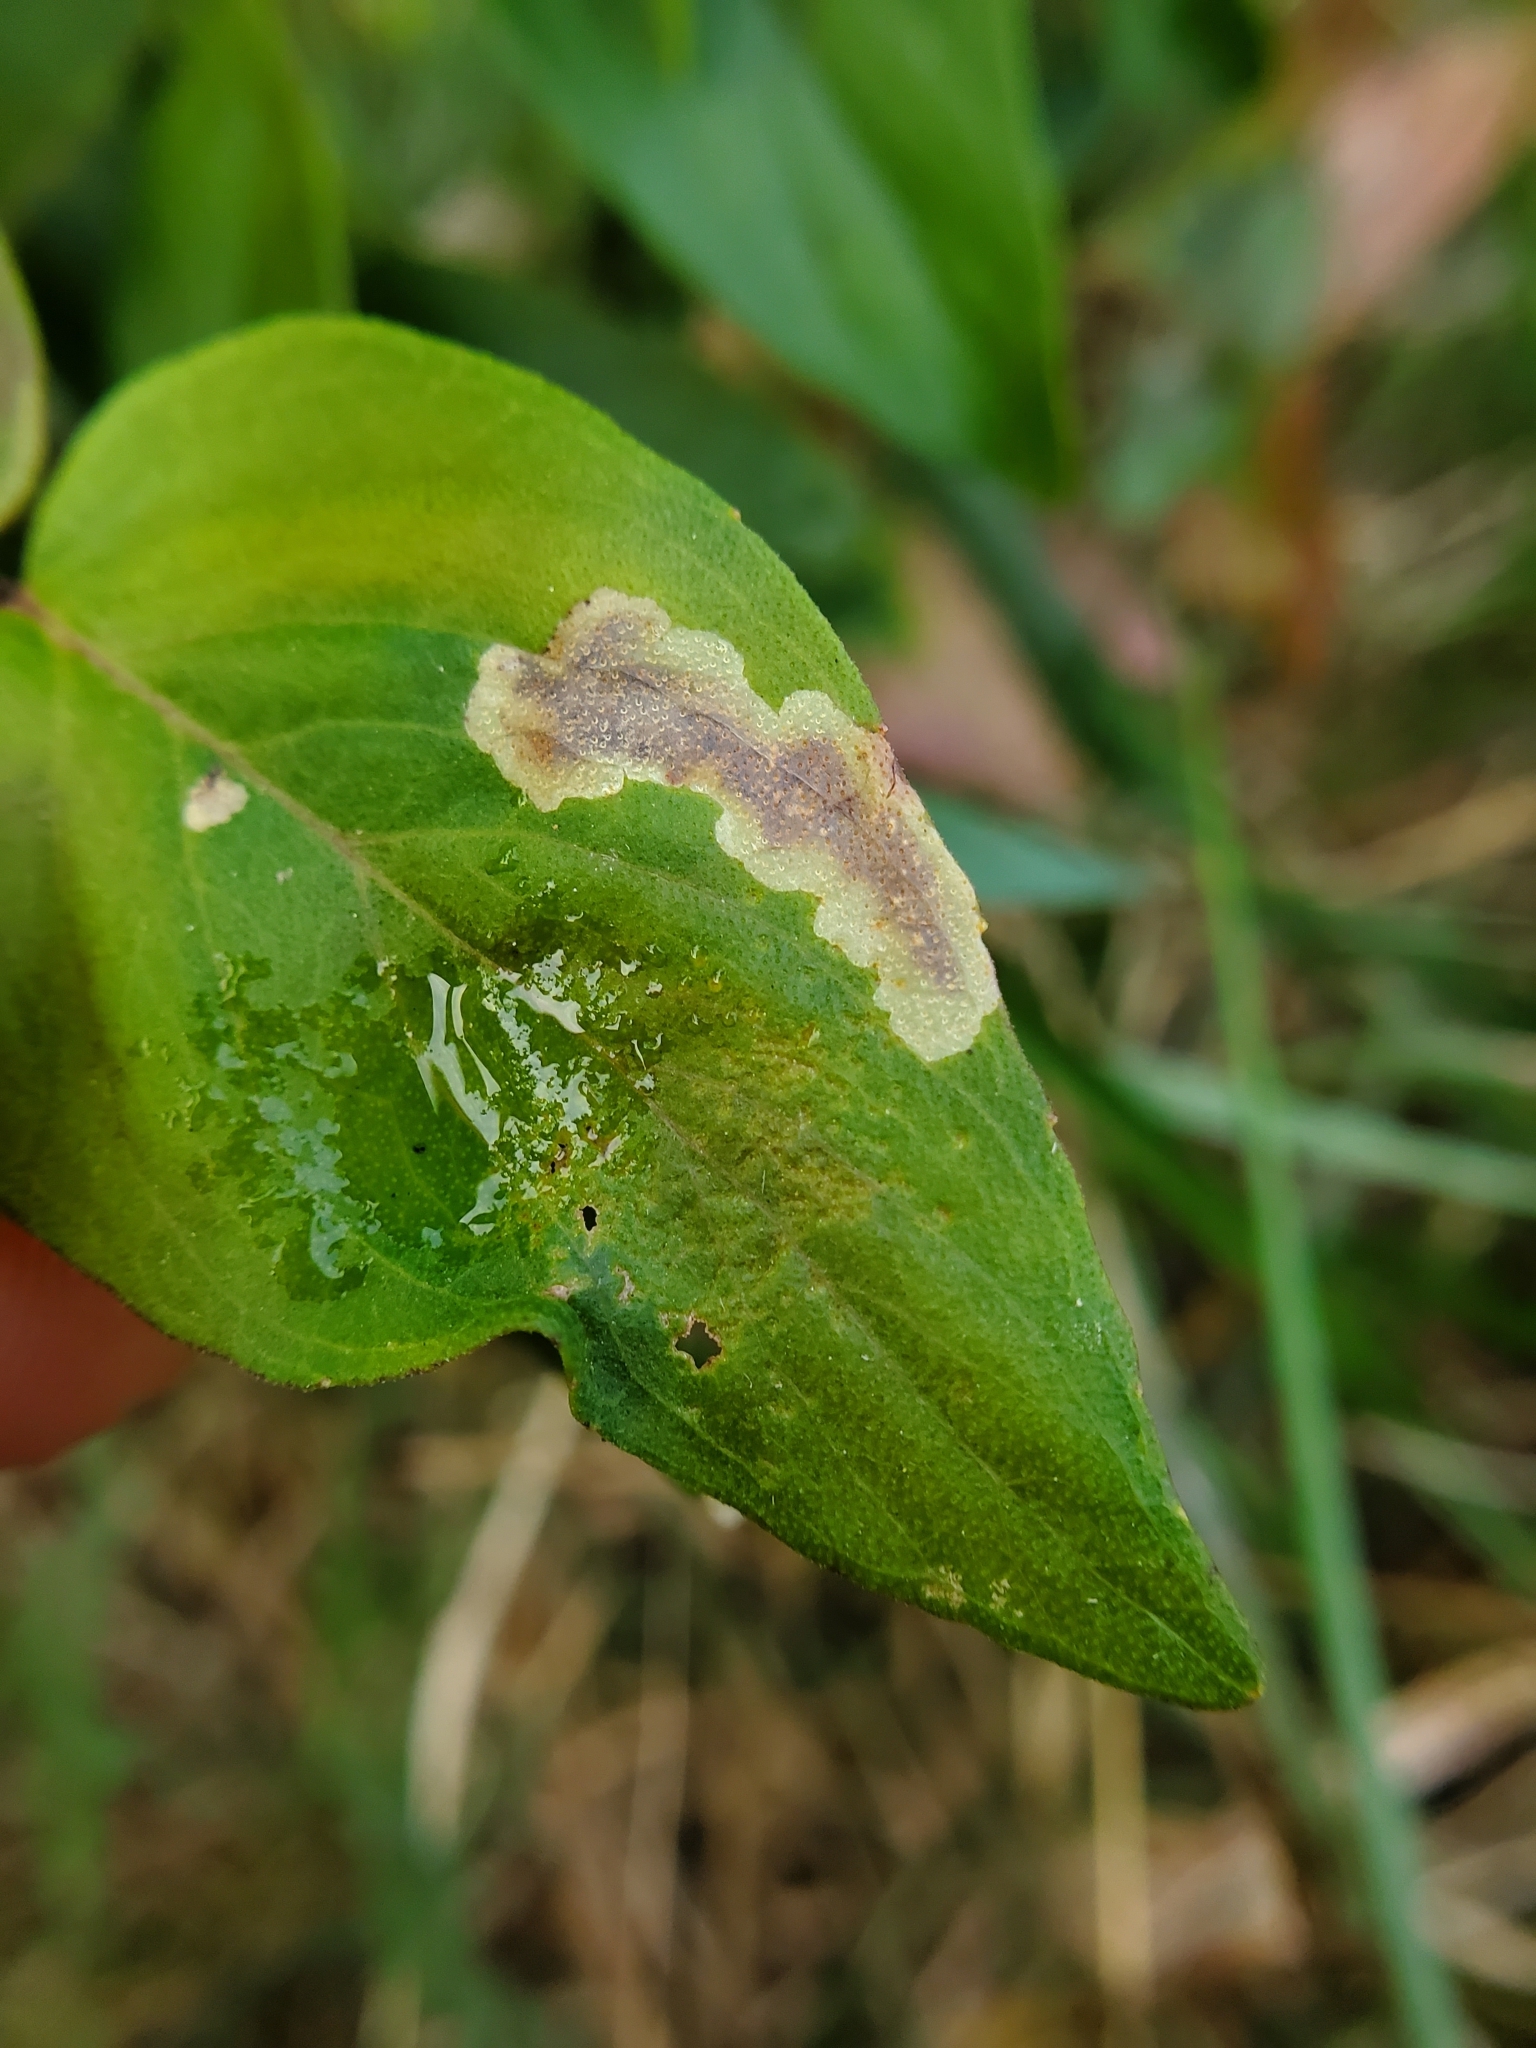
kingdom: Animalia
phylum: Arthropoda
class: Insecta
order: Diptera
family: Agromyzidae
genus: Calycomyza
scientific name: Calycomyza menthae
